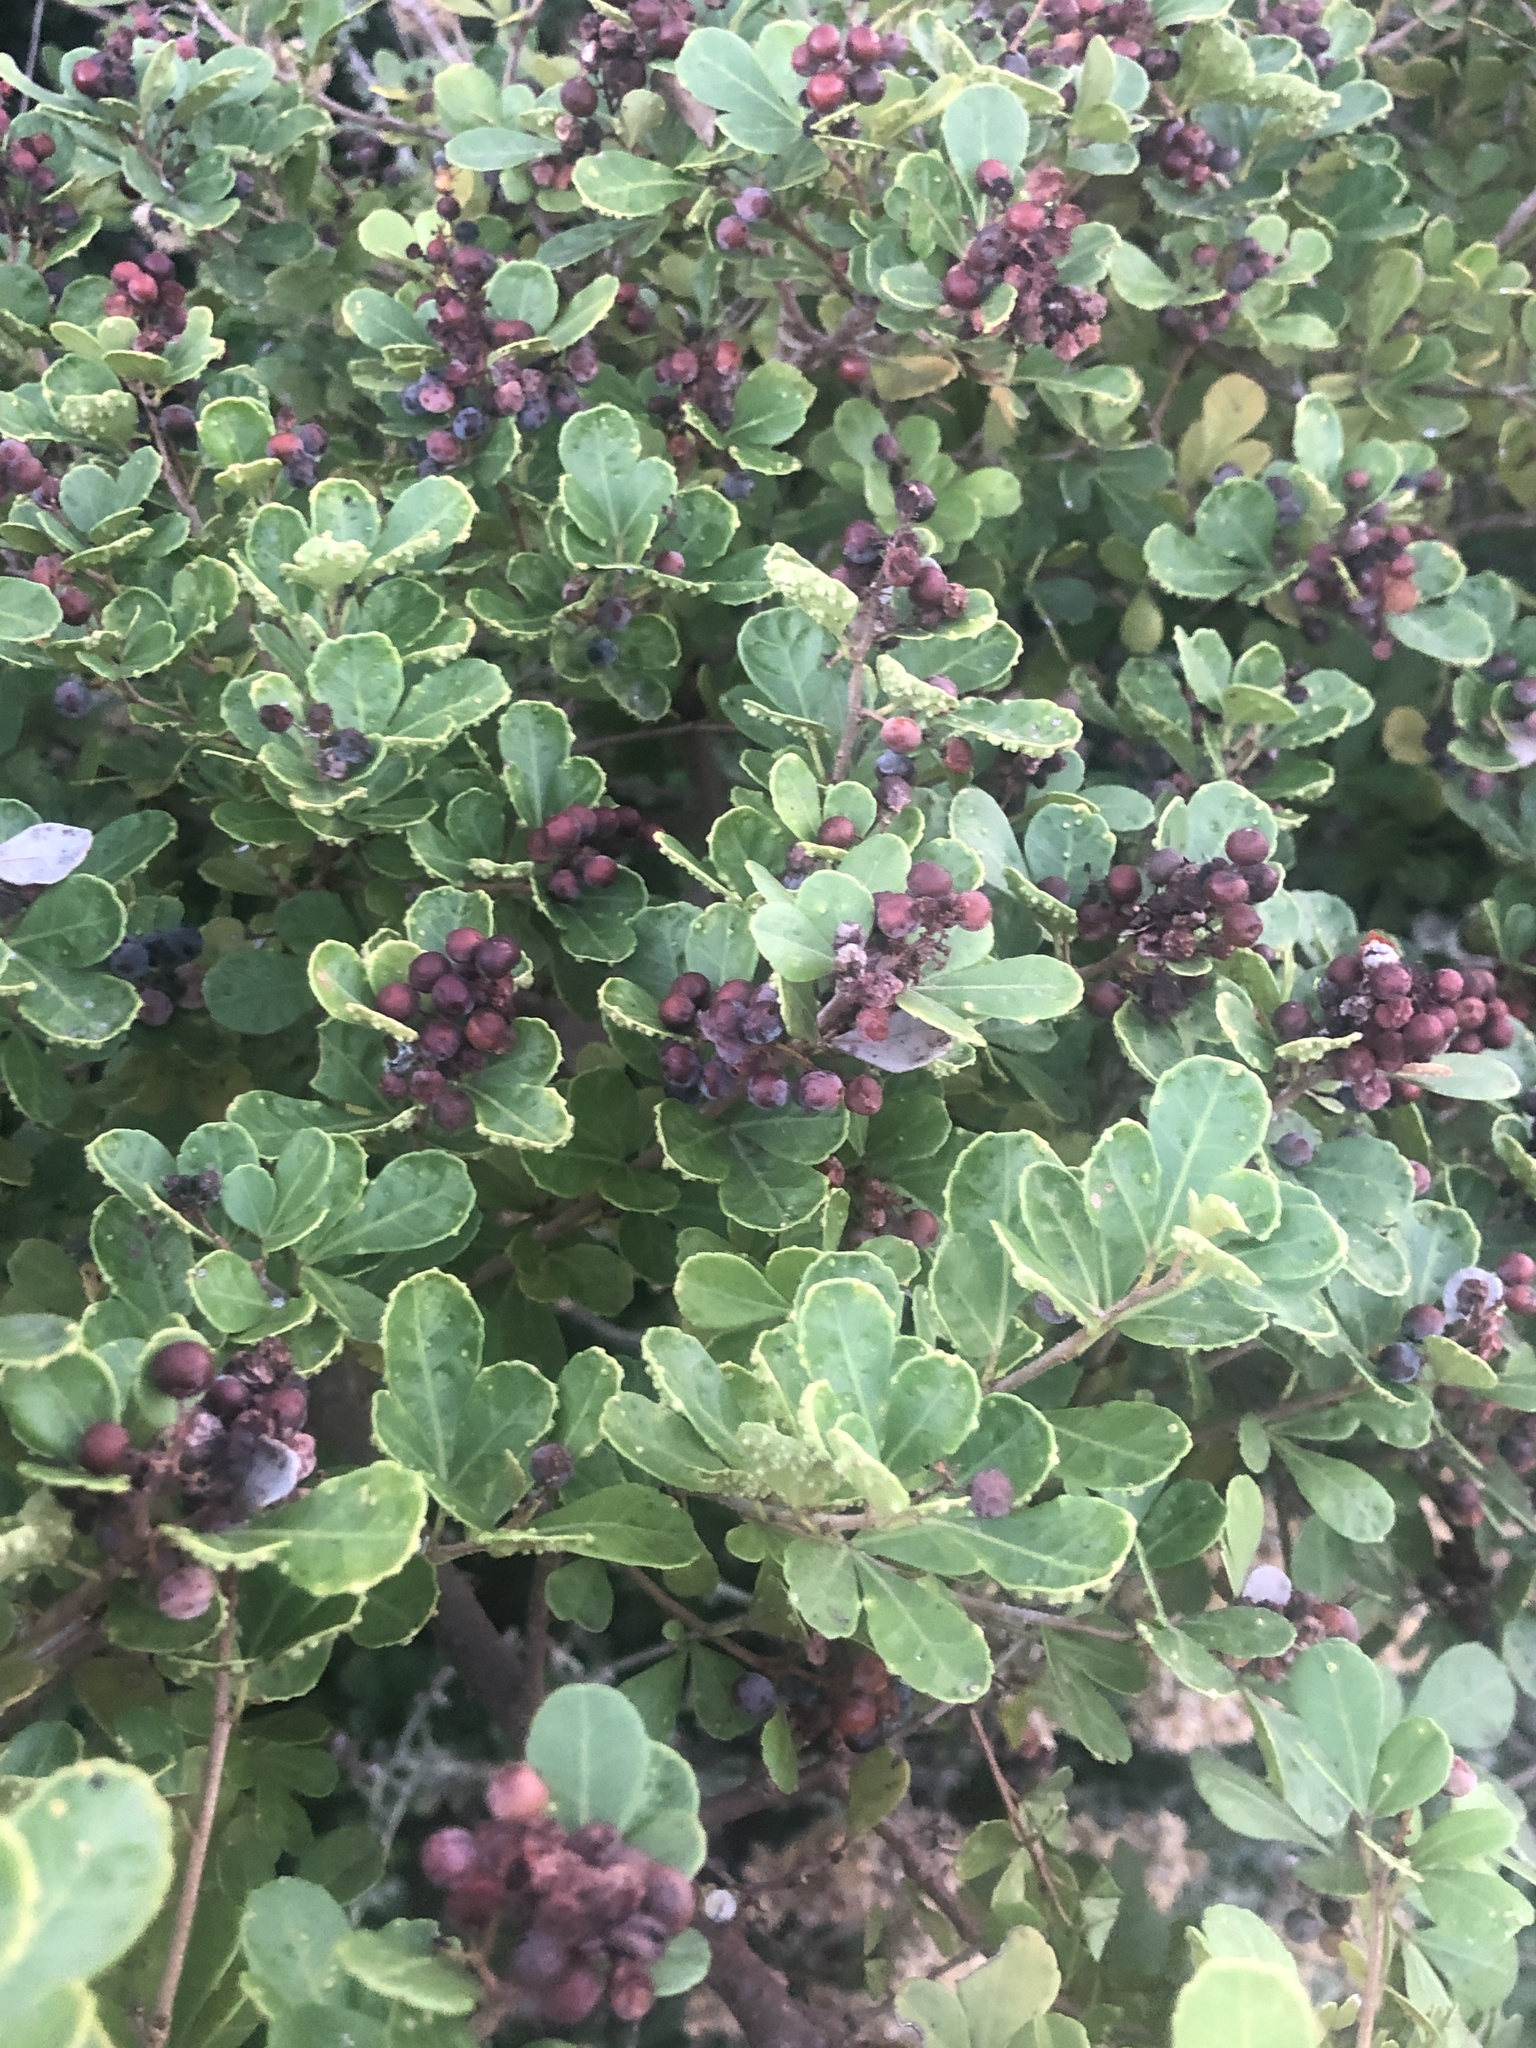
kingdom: Plantae
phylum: Tracheophyta
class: Magnoliopsida
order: Sapindales
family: Anacardiaceae
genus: Searsia
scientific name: Searsia crenata
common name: Crowberry
